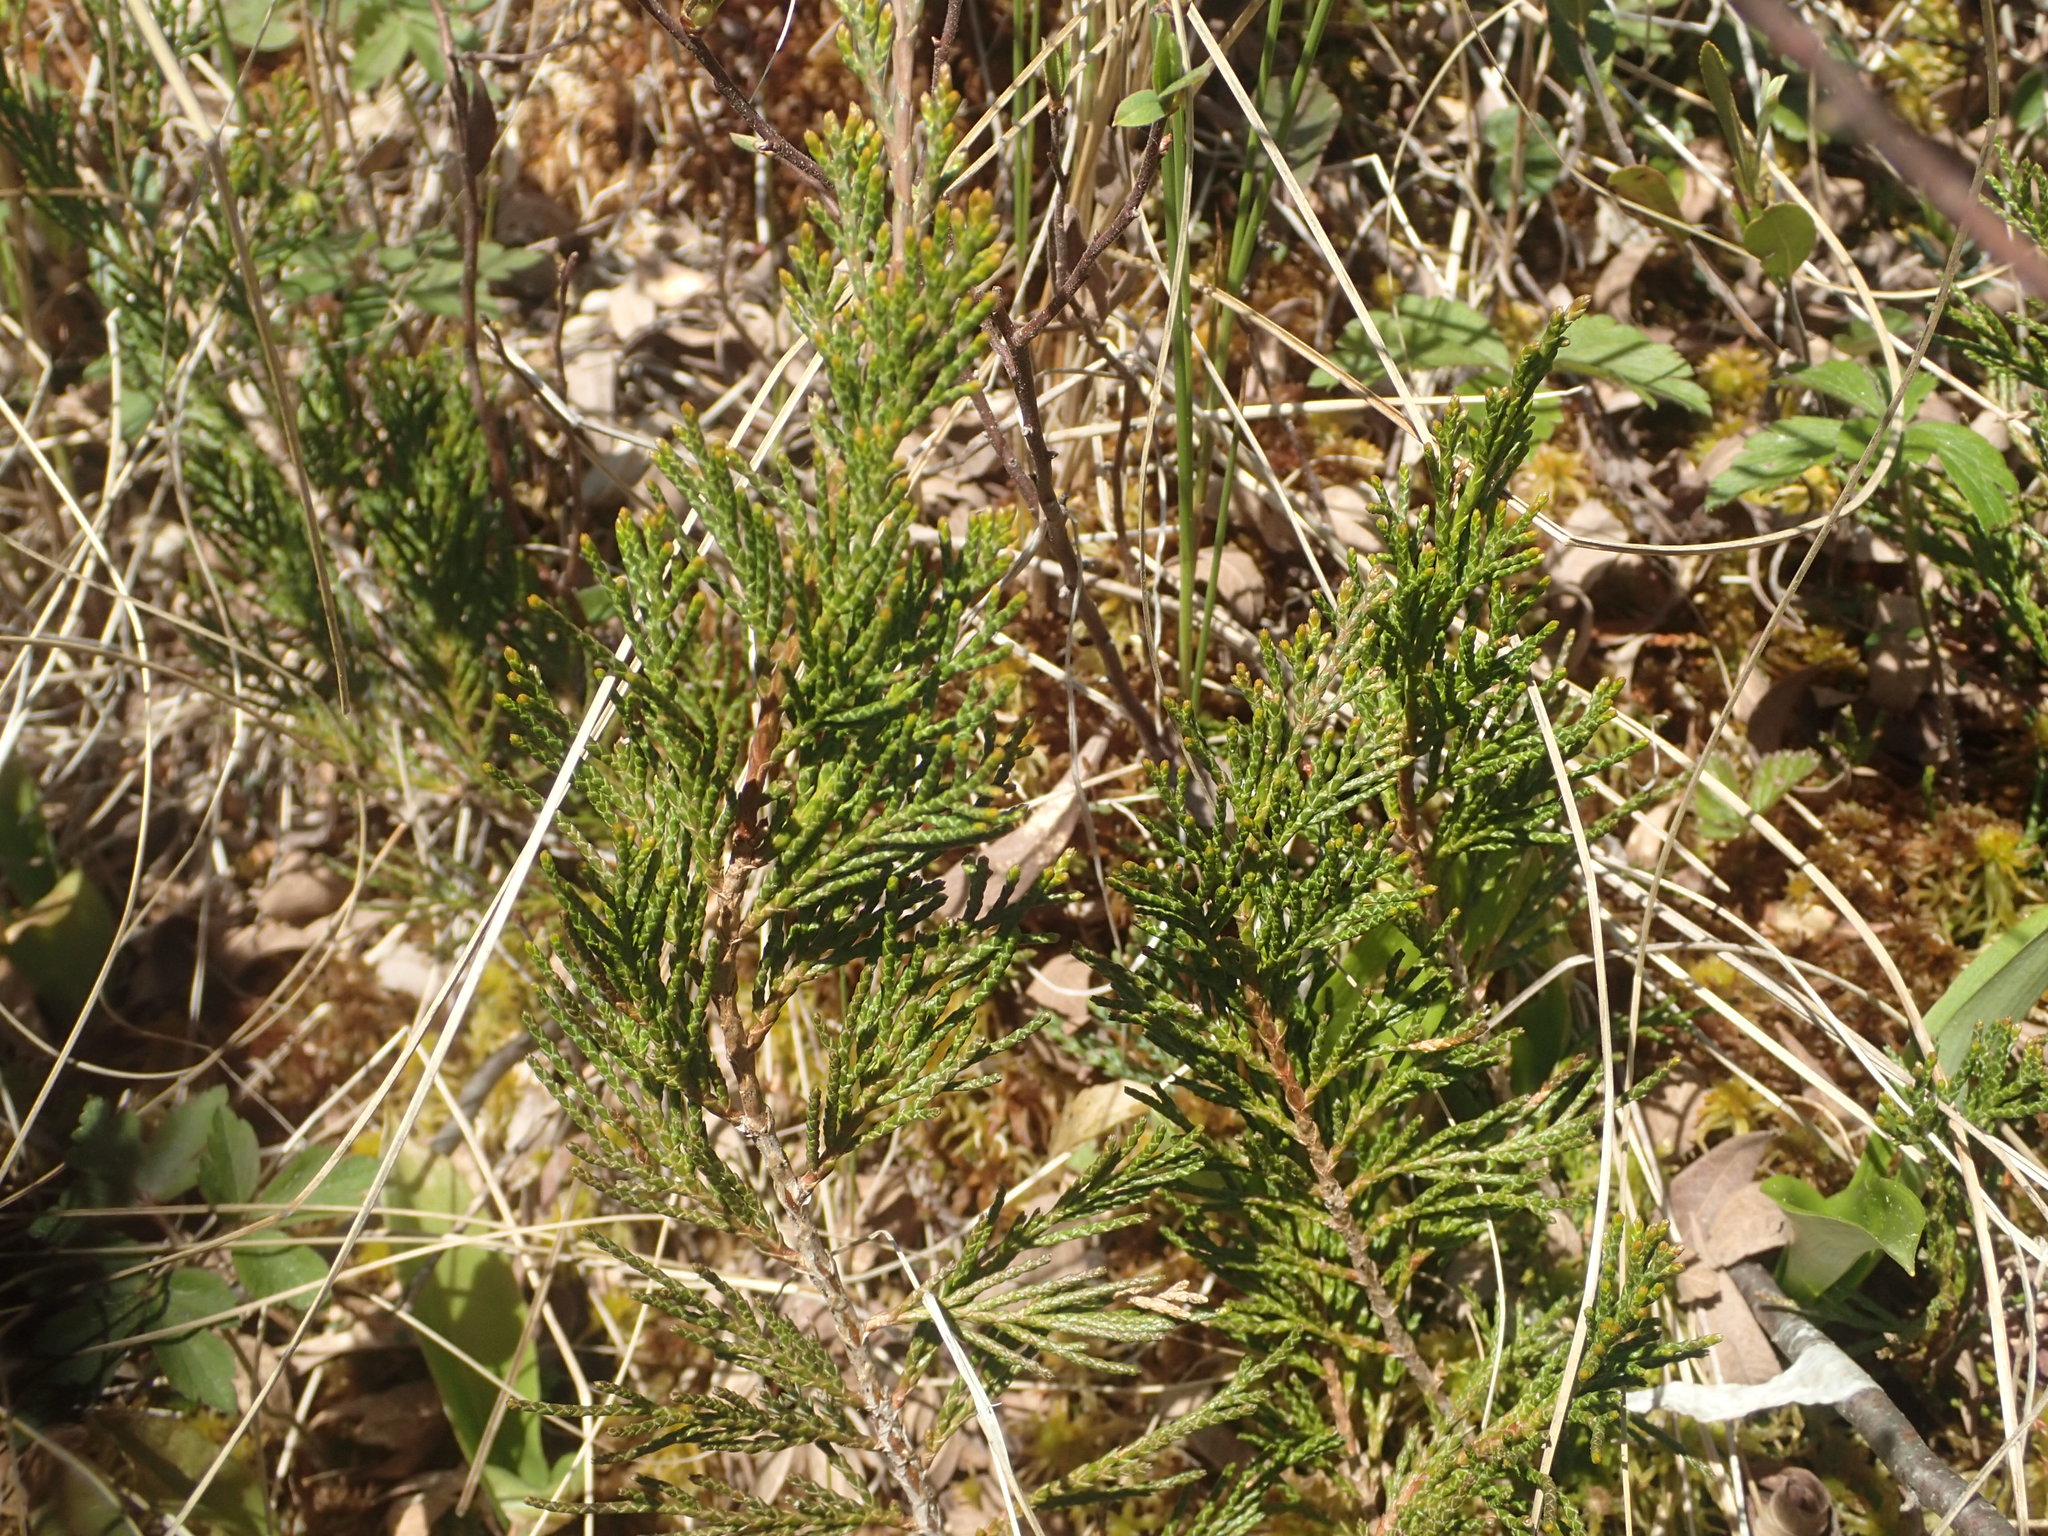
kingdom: Plantae
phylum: Tracheophyta
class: Pinopsida
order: Pinales
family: Cupressaceae
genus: Juniperus
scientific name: Juniperus horizontalis
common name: Creeping juniper
